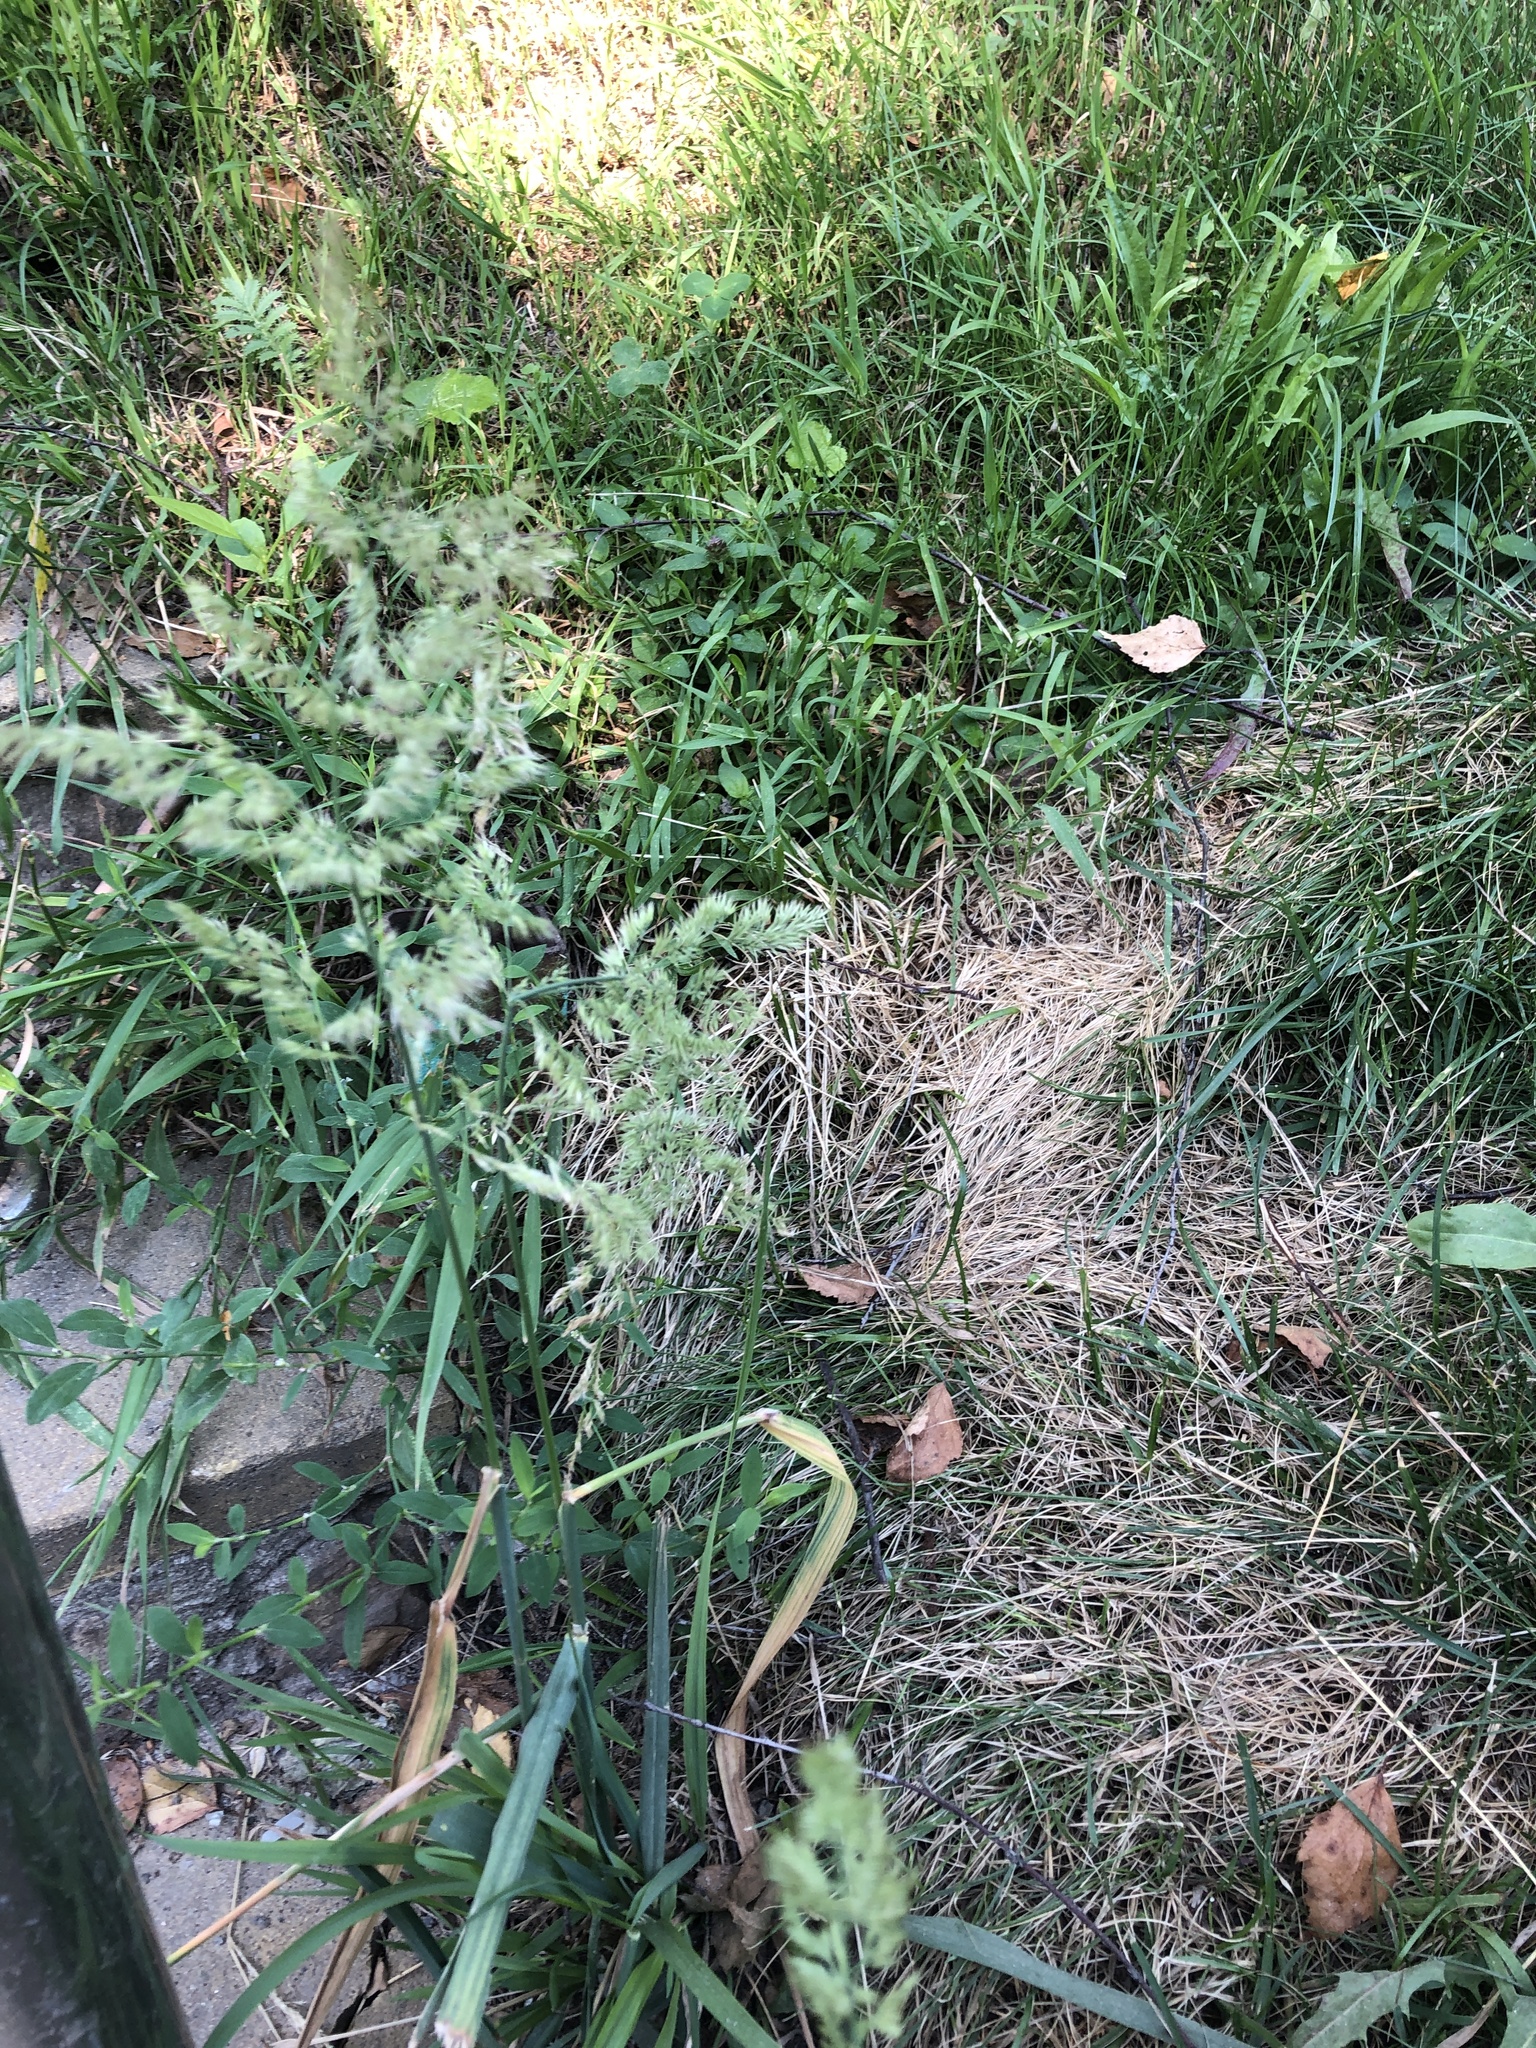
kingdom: Plantae
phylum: Tracheophyta
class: Liliopsida
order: Poales
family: Poaceae
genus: Calamagrostis
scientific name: Calamagrostis epigejos
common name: Wood small-reed
